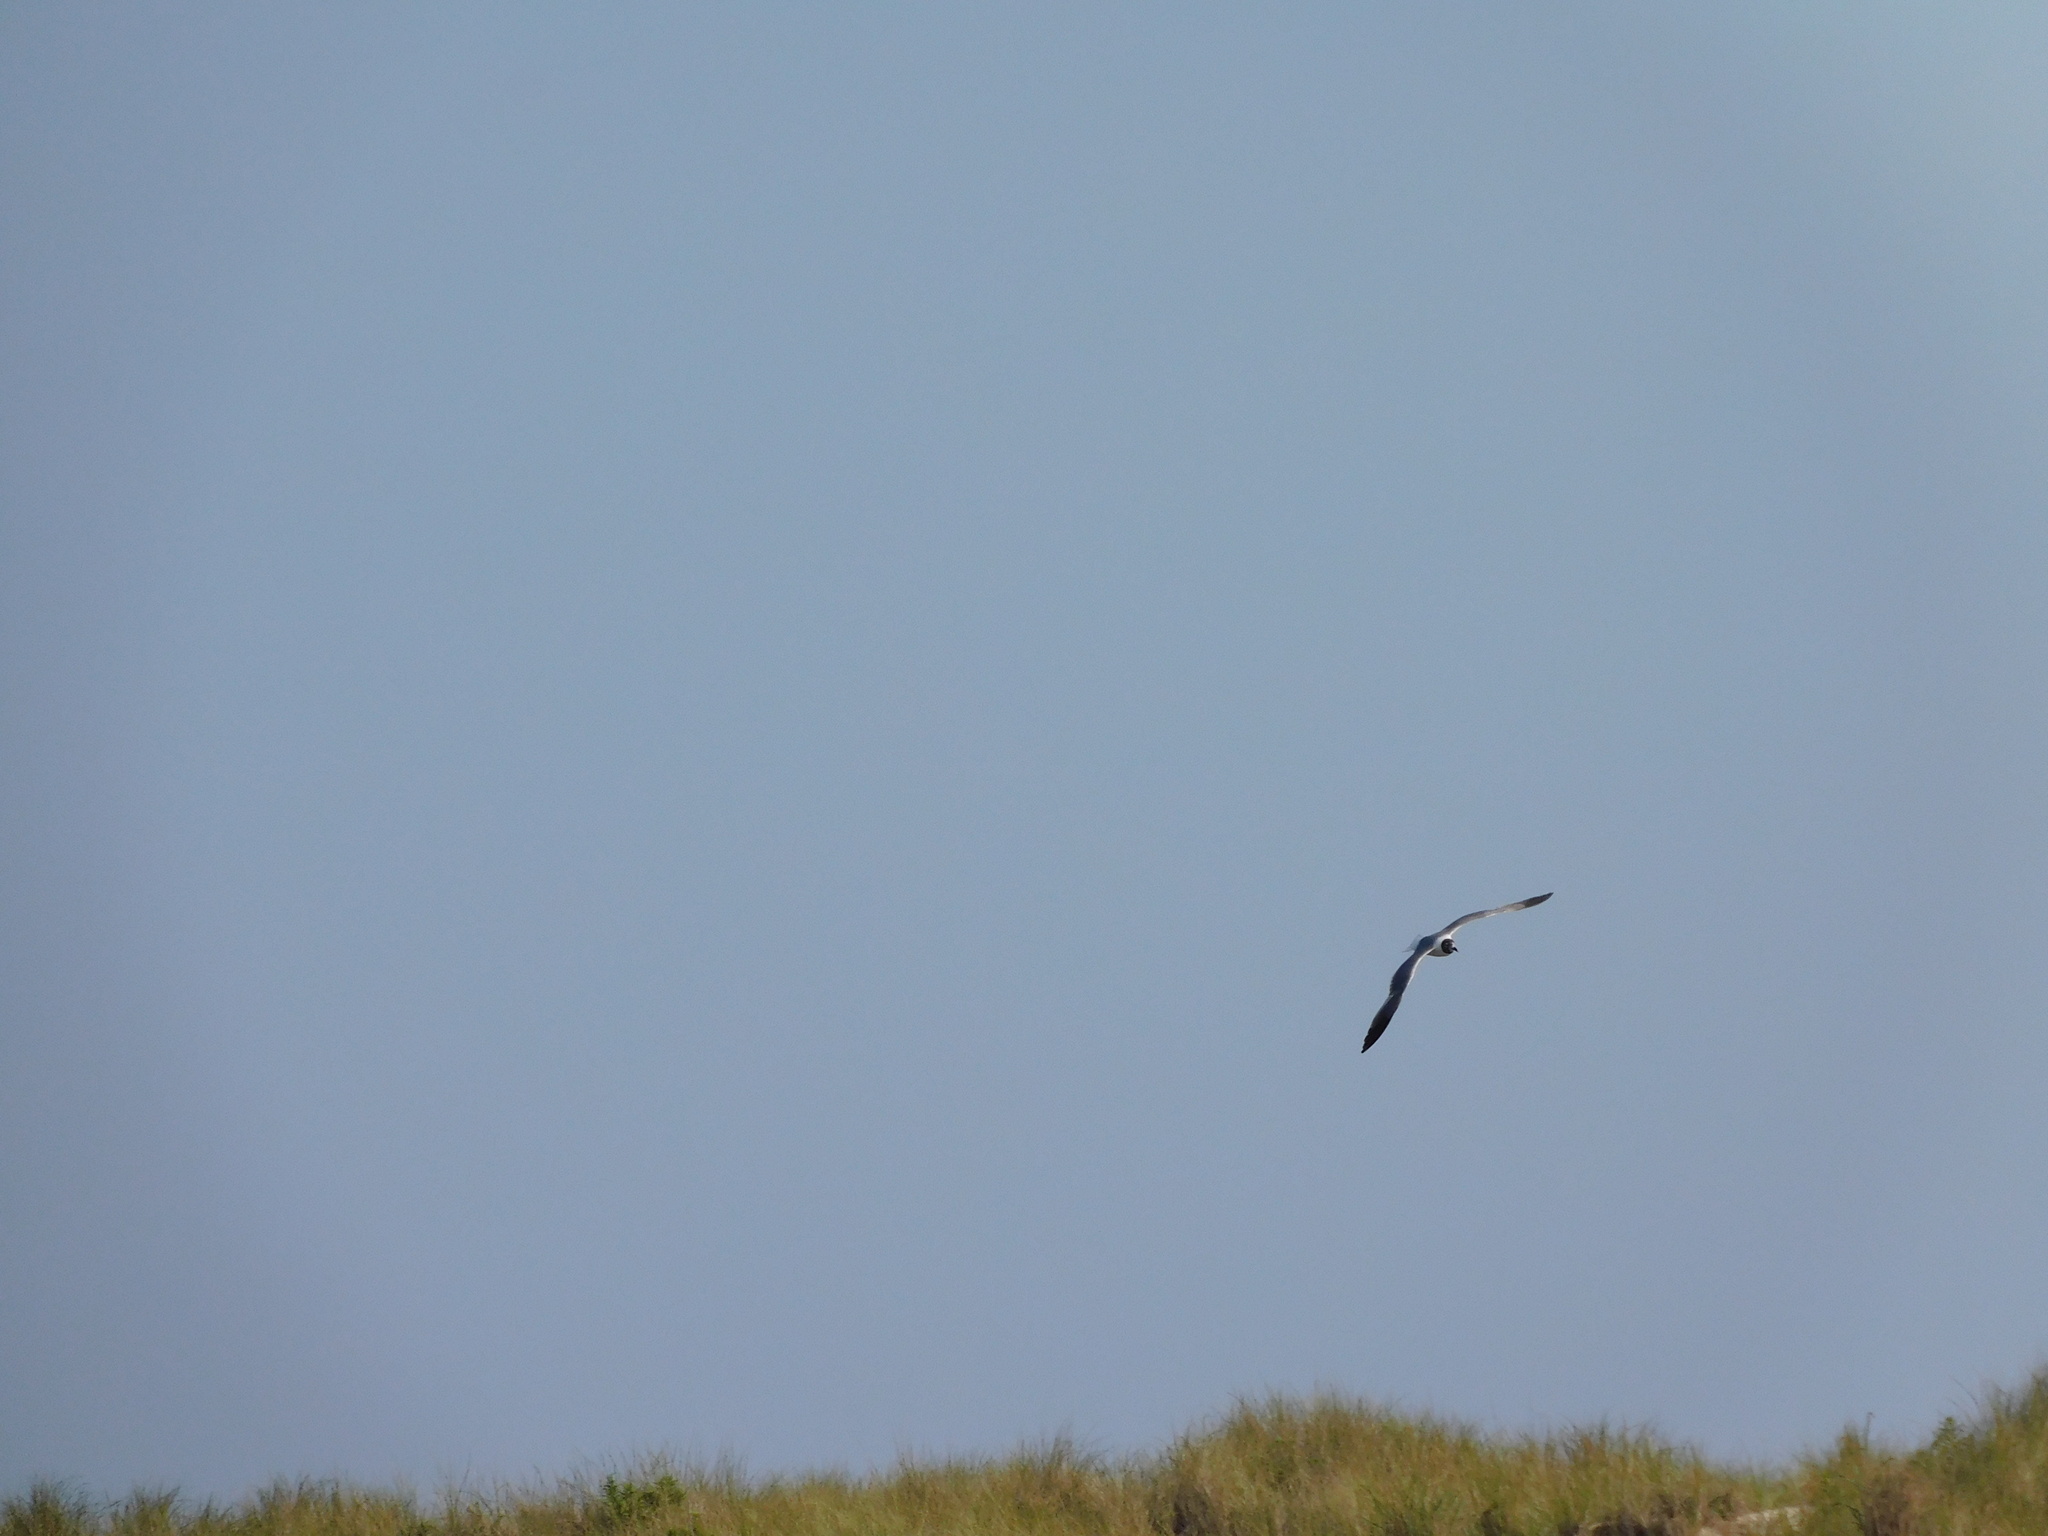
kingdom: Animalia
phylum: Chordata
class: Aves
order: Charadriiformes
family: Laridae
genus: Leucophaeus
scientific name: Leucophaeus atricilla
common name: Laughing gull
